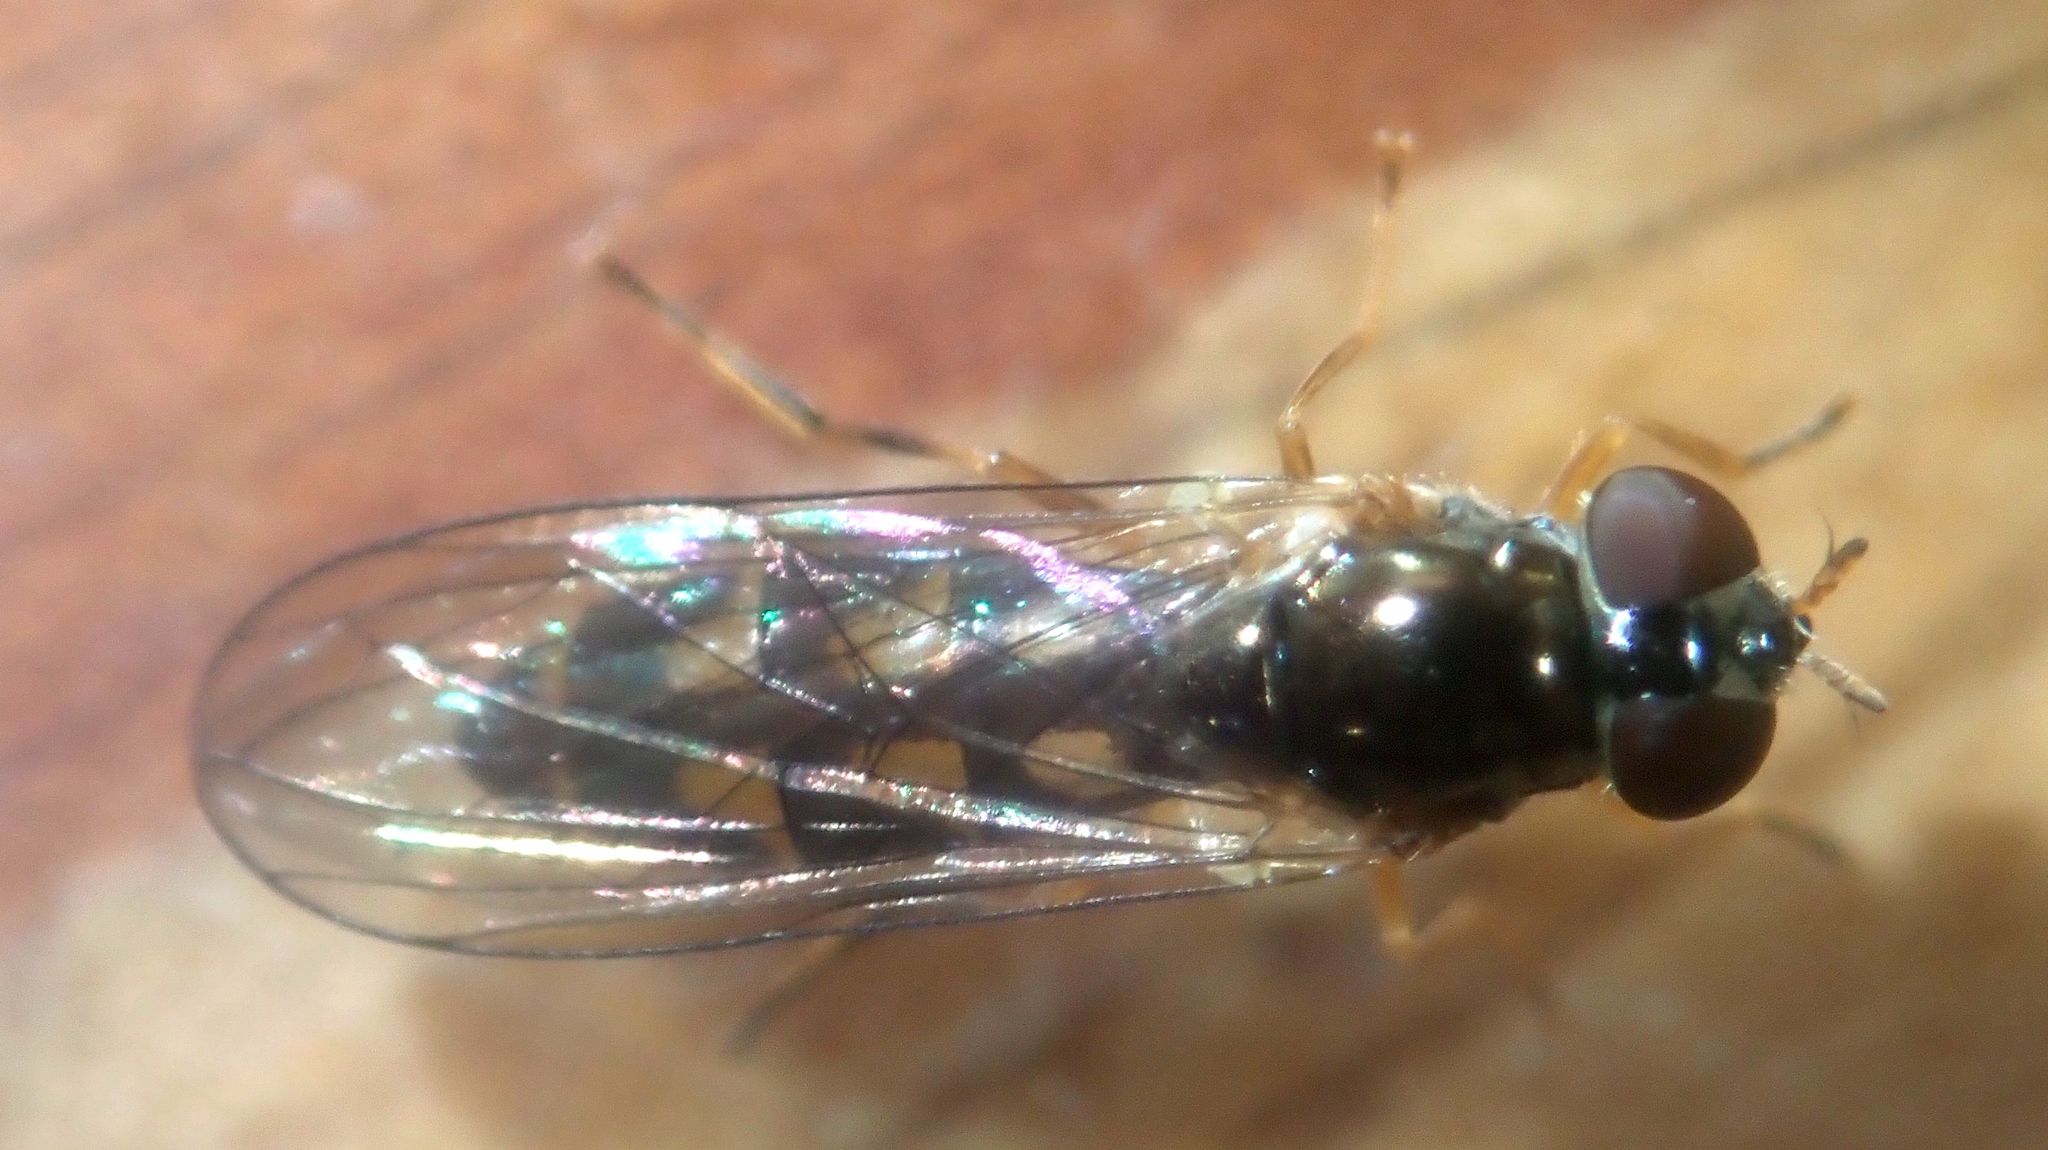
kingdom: Animalia
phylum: Arthropoda
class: Insecta
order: Diptera
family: Syrphidae
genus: Melanostoma
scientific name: Melanostoma scalare
